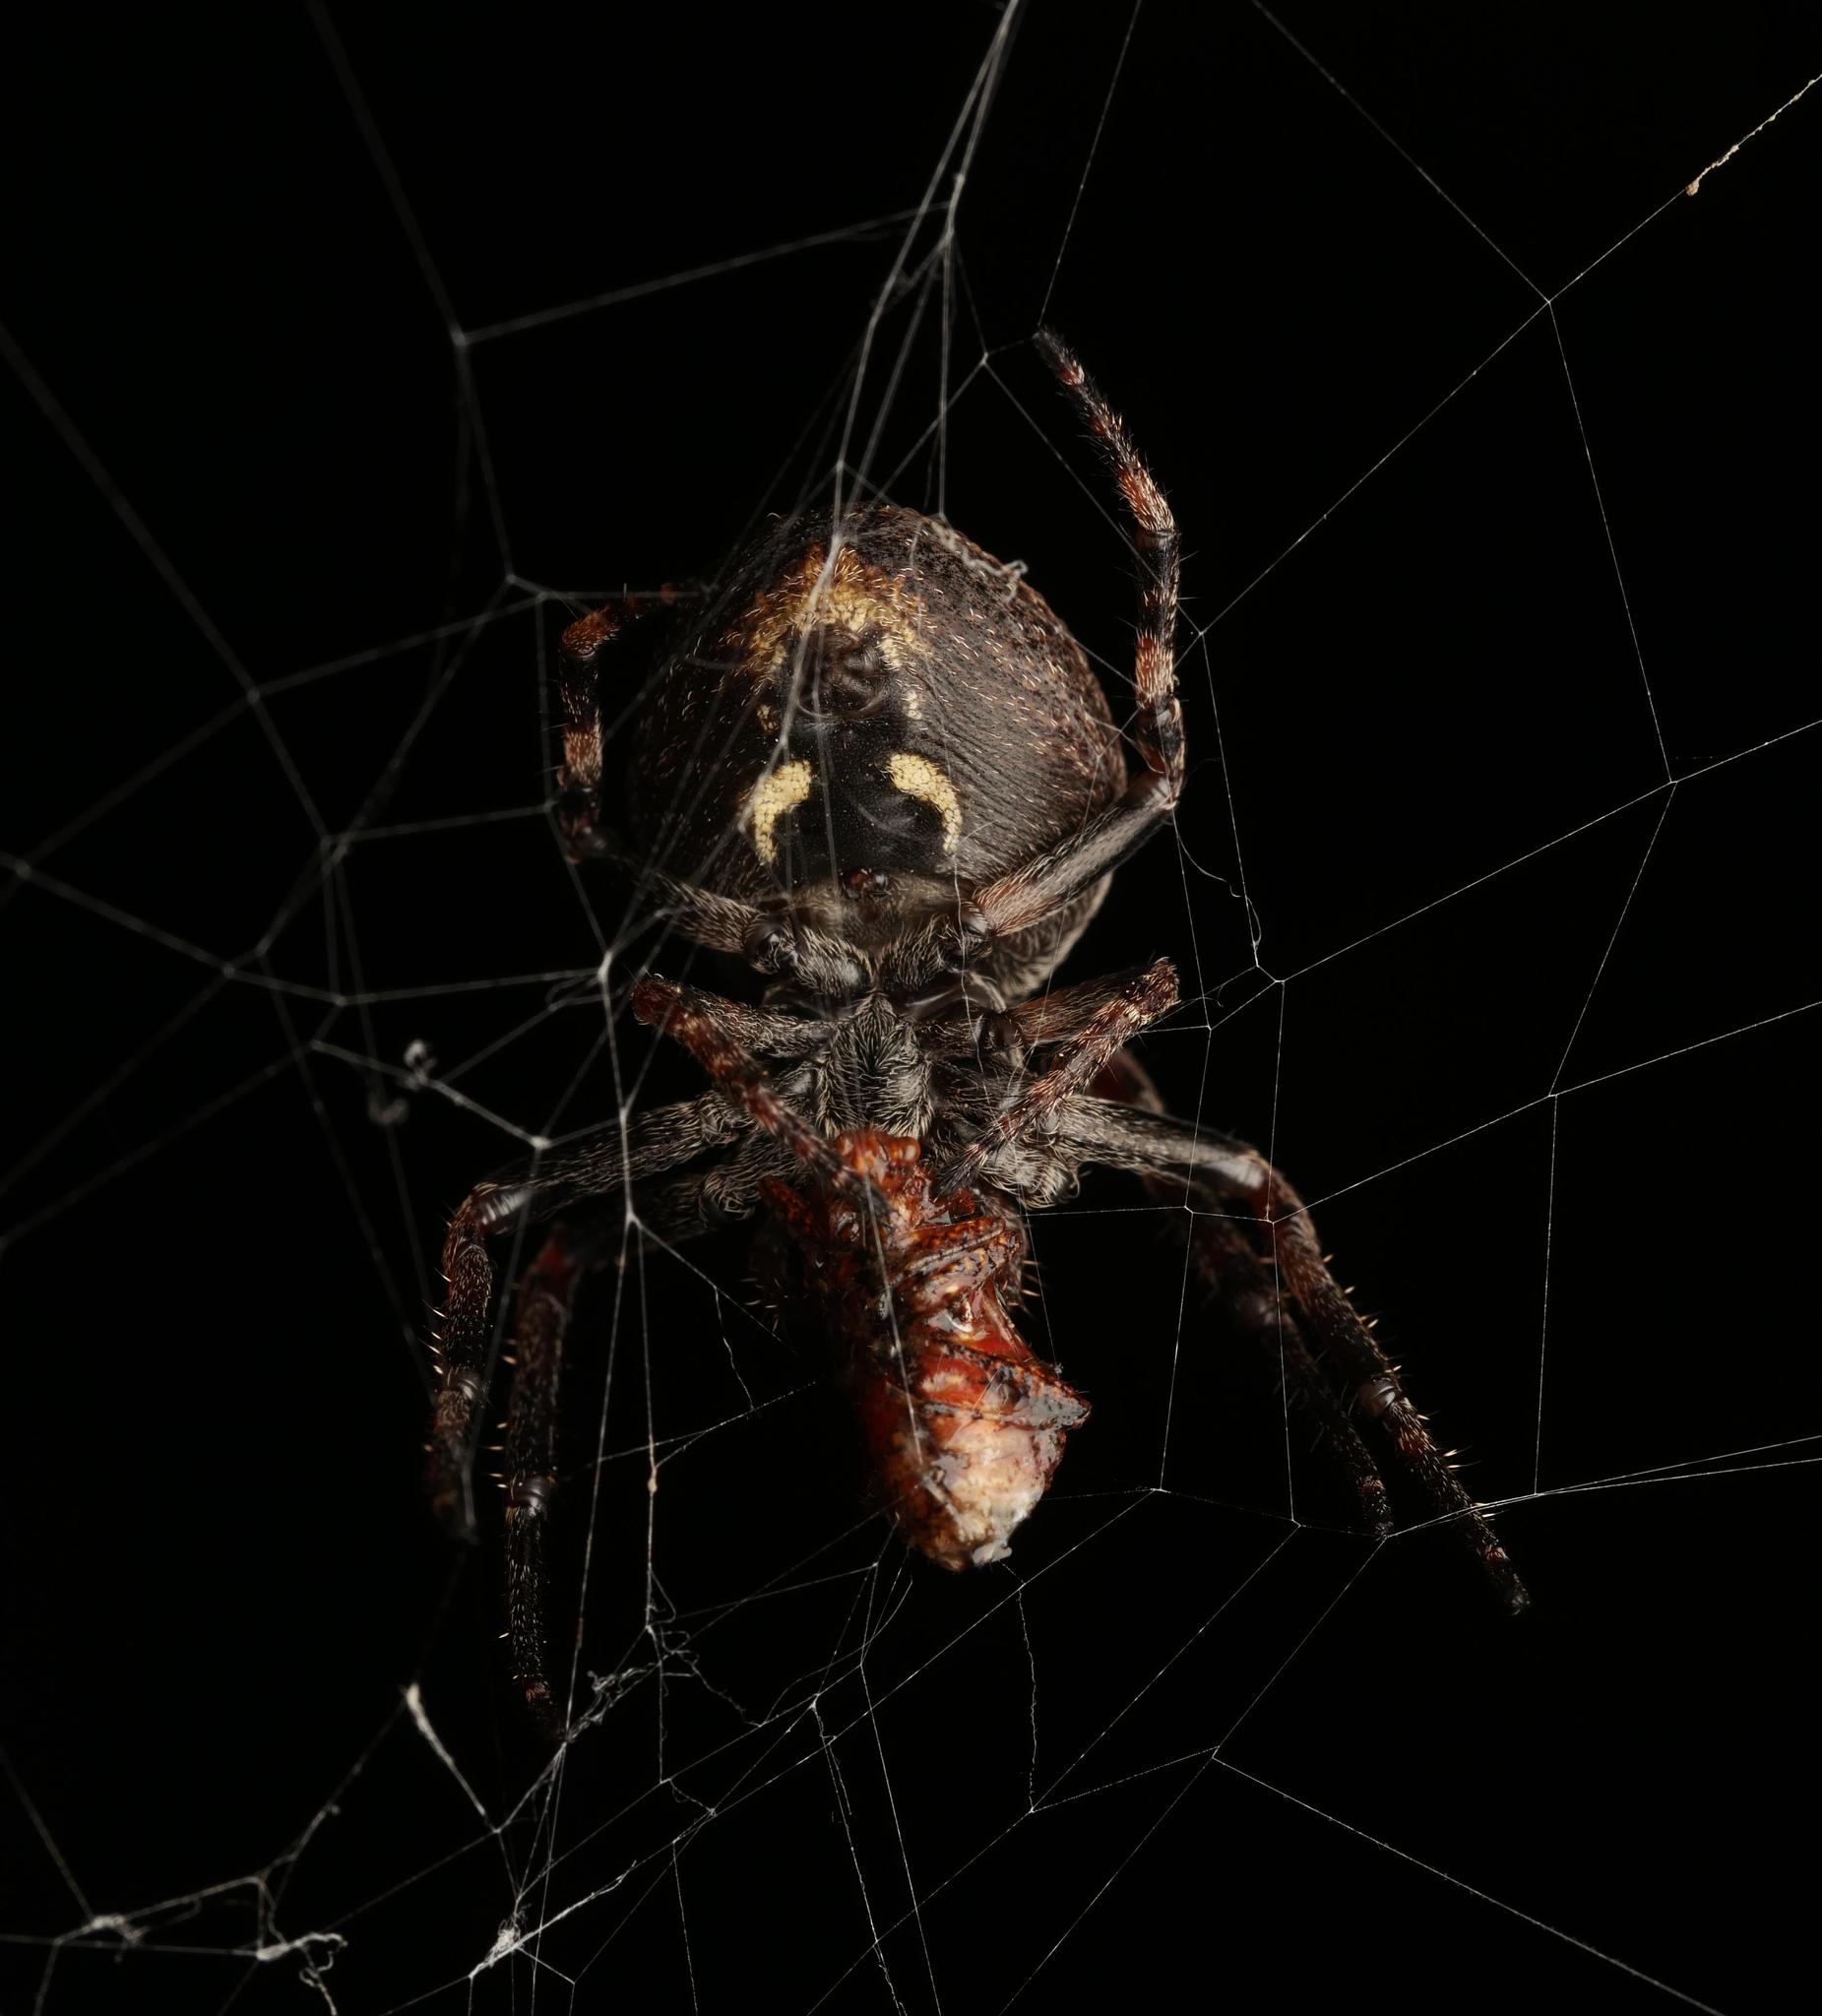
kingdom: Animalia
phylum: Arthropoda
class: Arachnida
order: Araneae
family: Araneidae
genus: Nuctenea
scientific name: Nuctenea umbratica
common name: Toad spider
